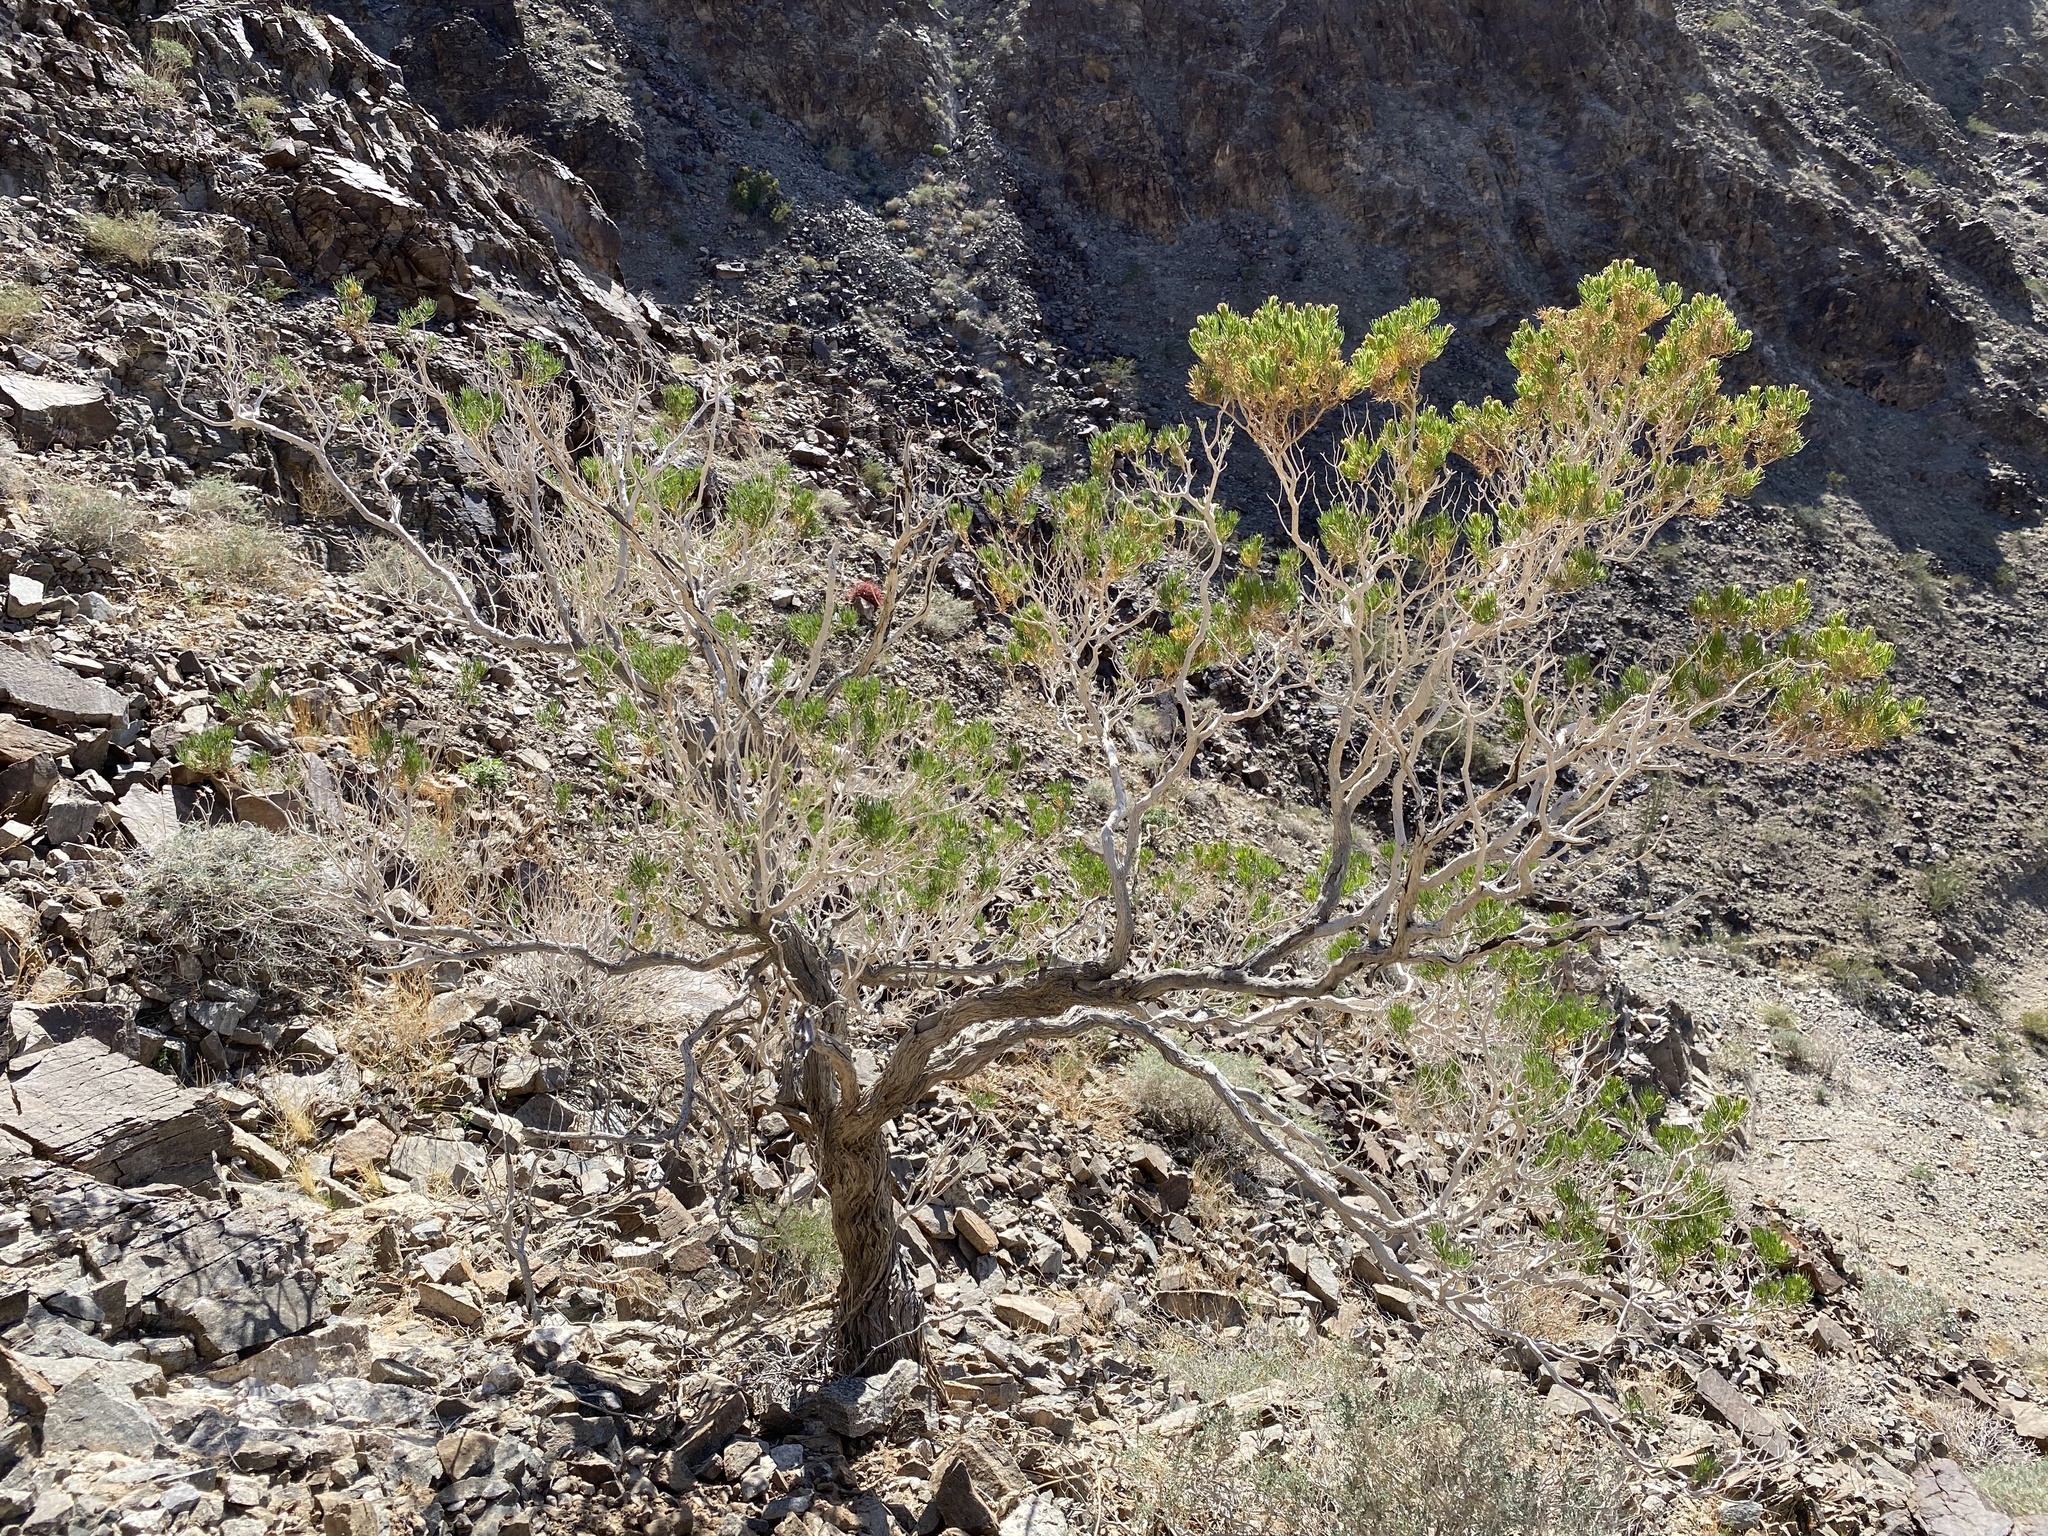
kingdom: Plantae
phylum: Tracheophyta
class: Magnoliopsida
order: Asterales
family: Asteraceae
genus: Peucephyllum
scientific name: Peucephyllum schottii
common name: Pygmy-cedar
